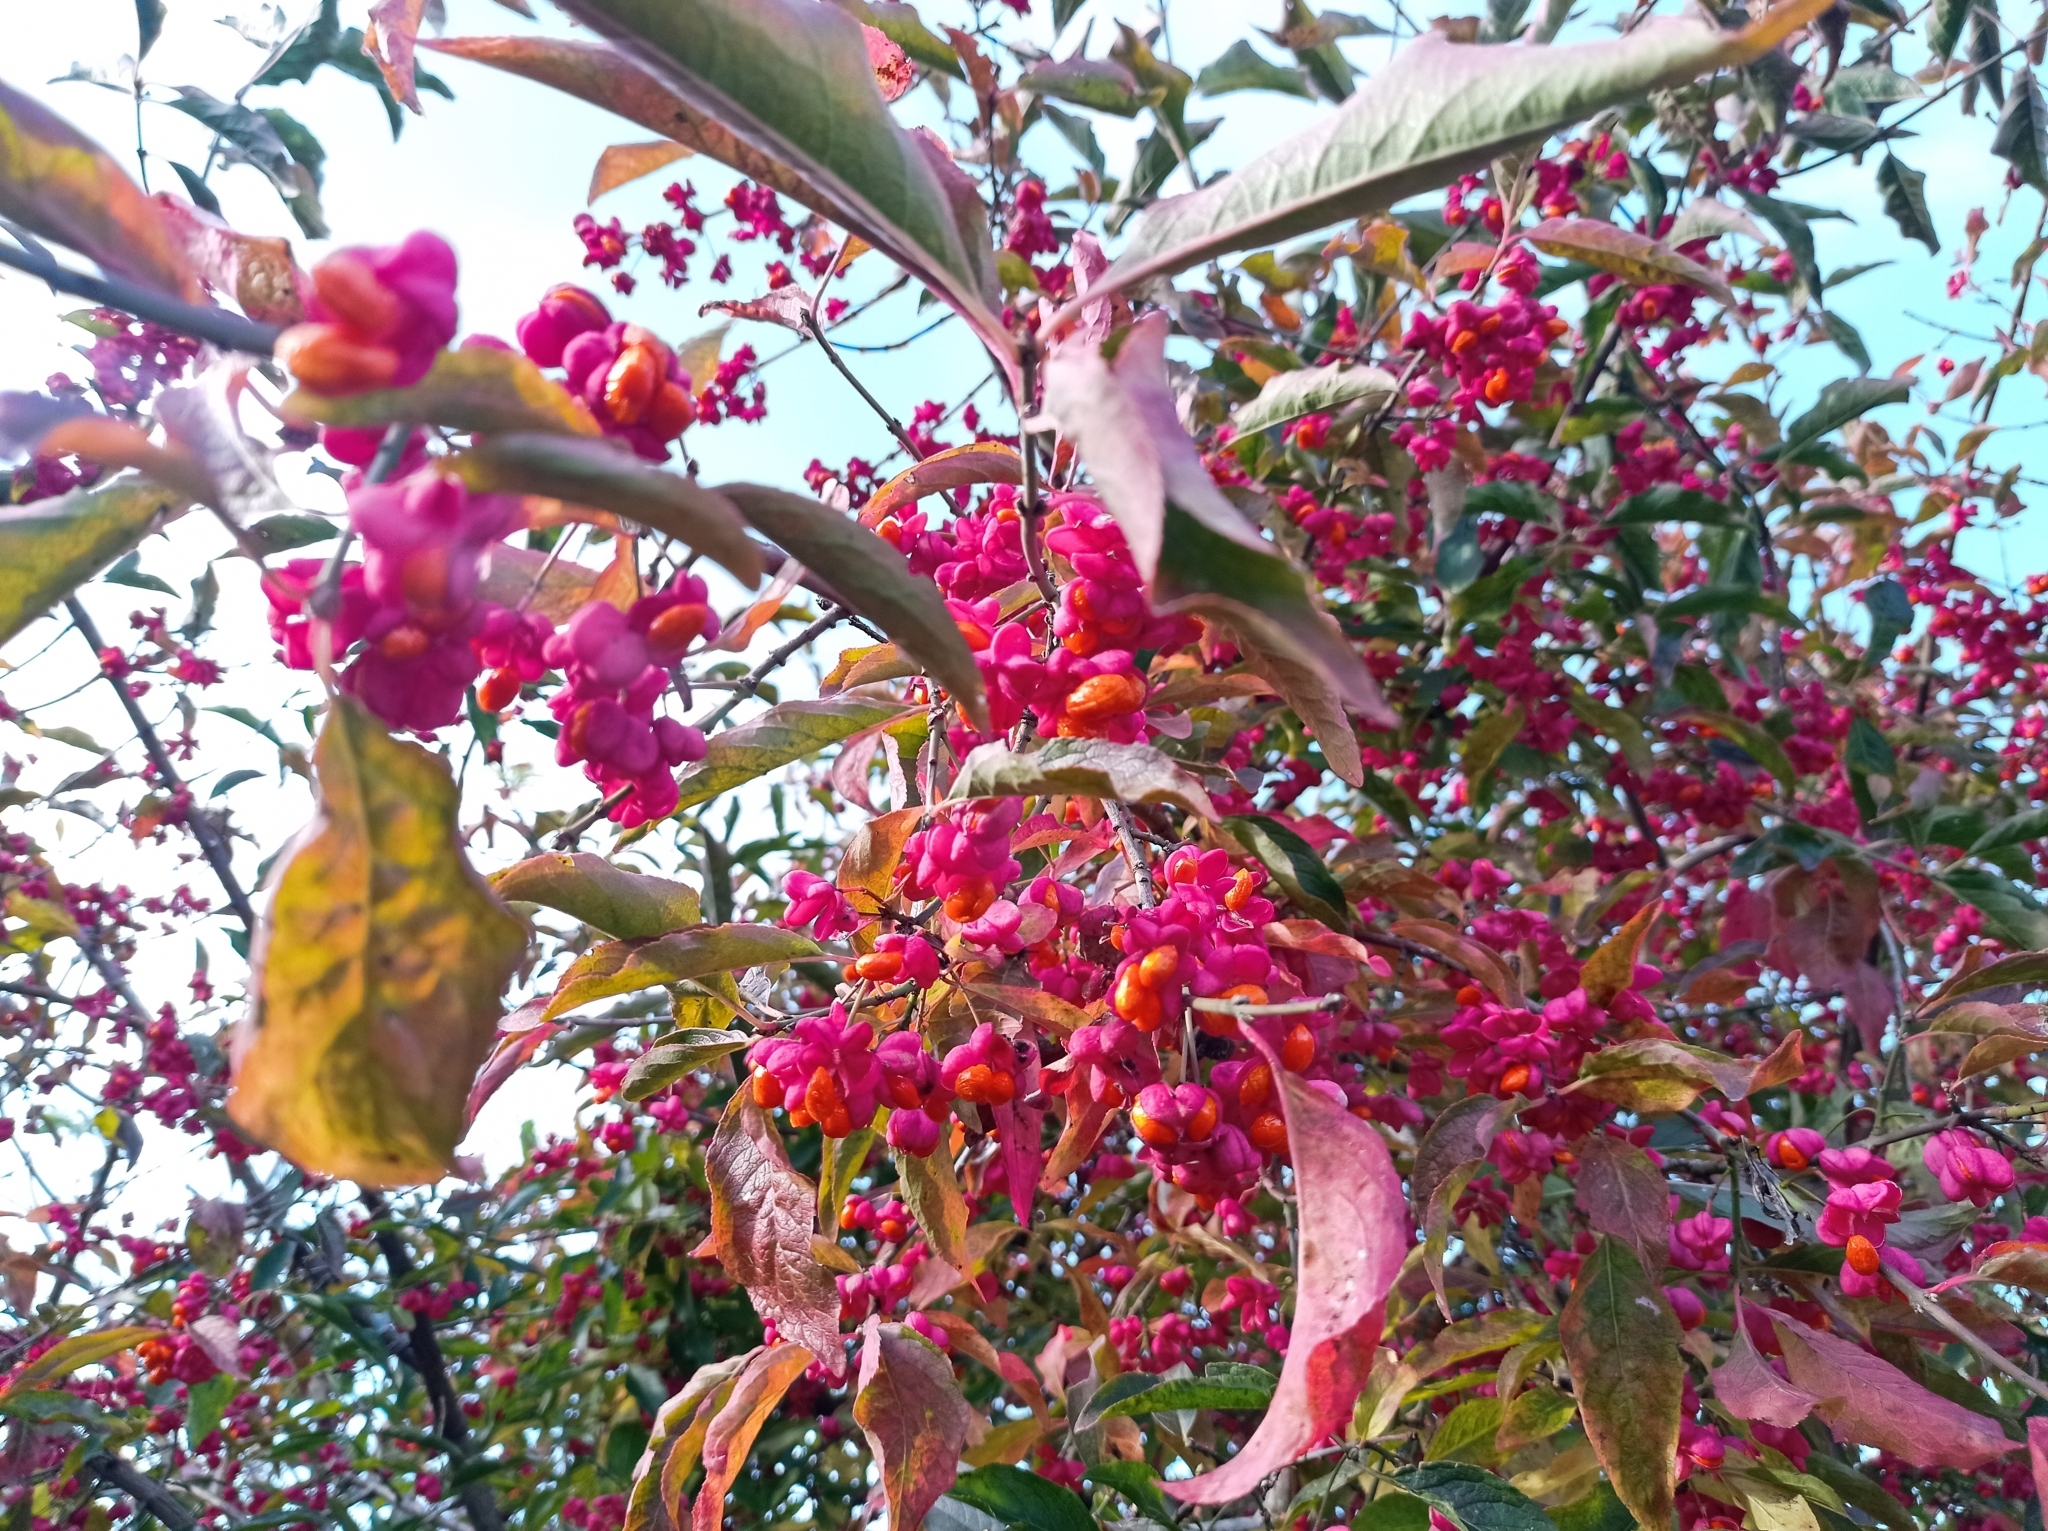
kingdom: Plantae
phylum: Tracheophyta
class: Magnoliopsida
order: Celastrales
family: Celastraceae
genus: Euonymus
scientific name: Euonymus europaeus
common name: Spindle
